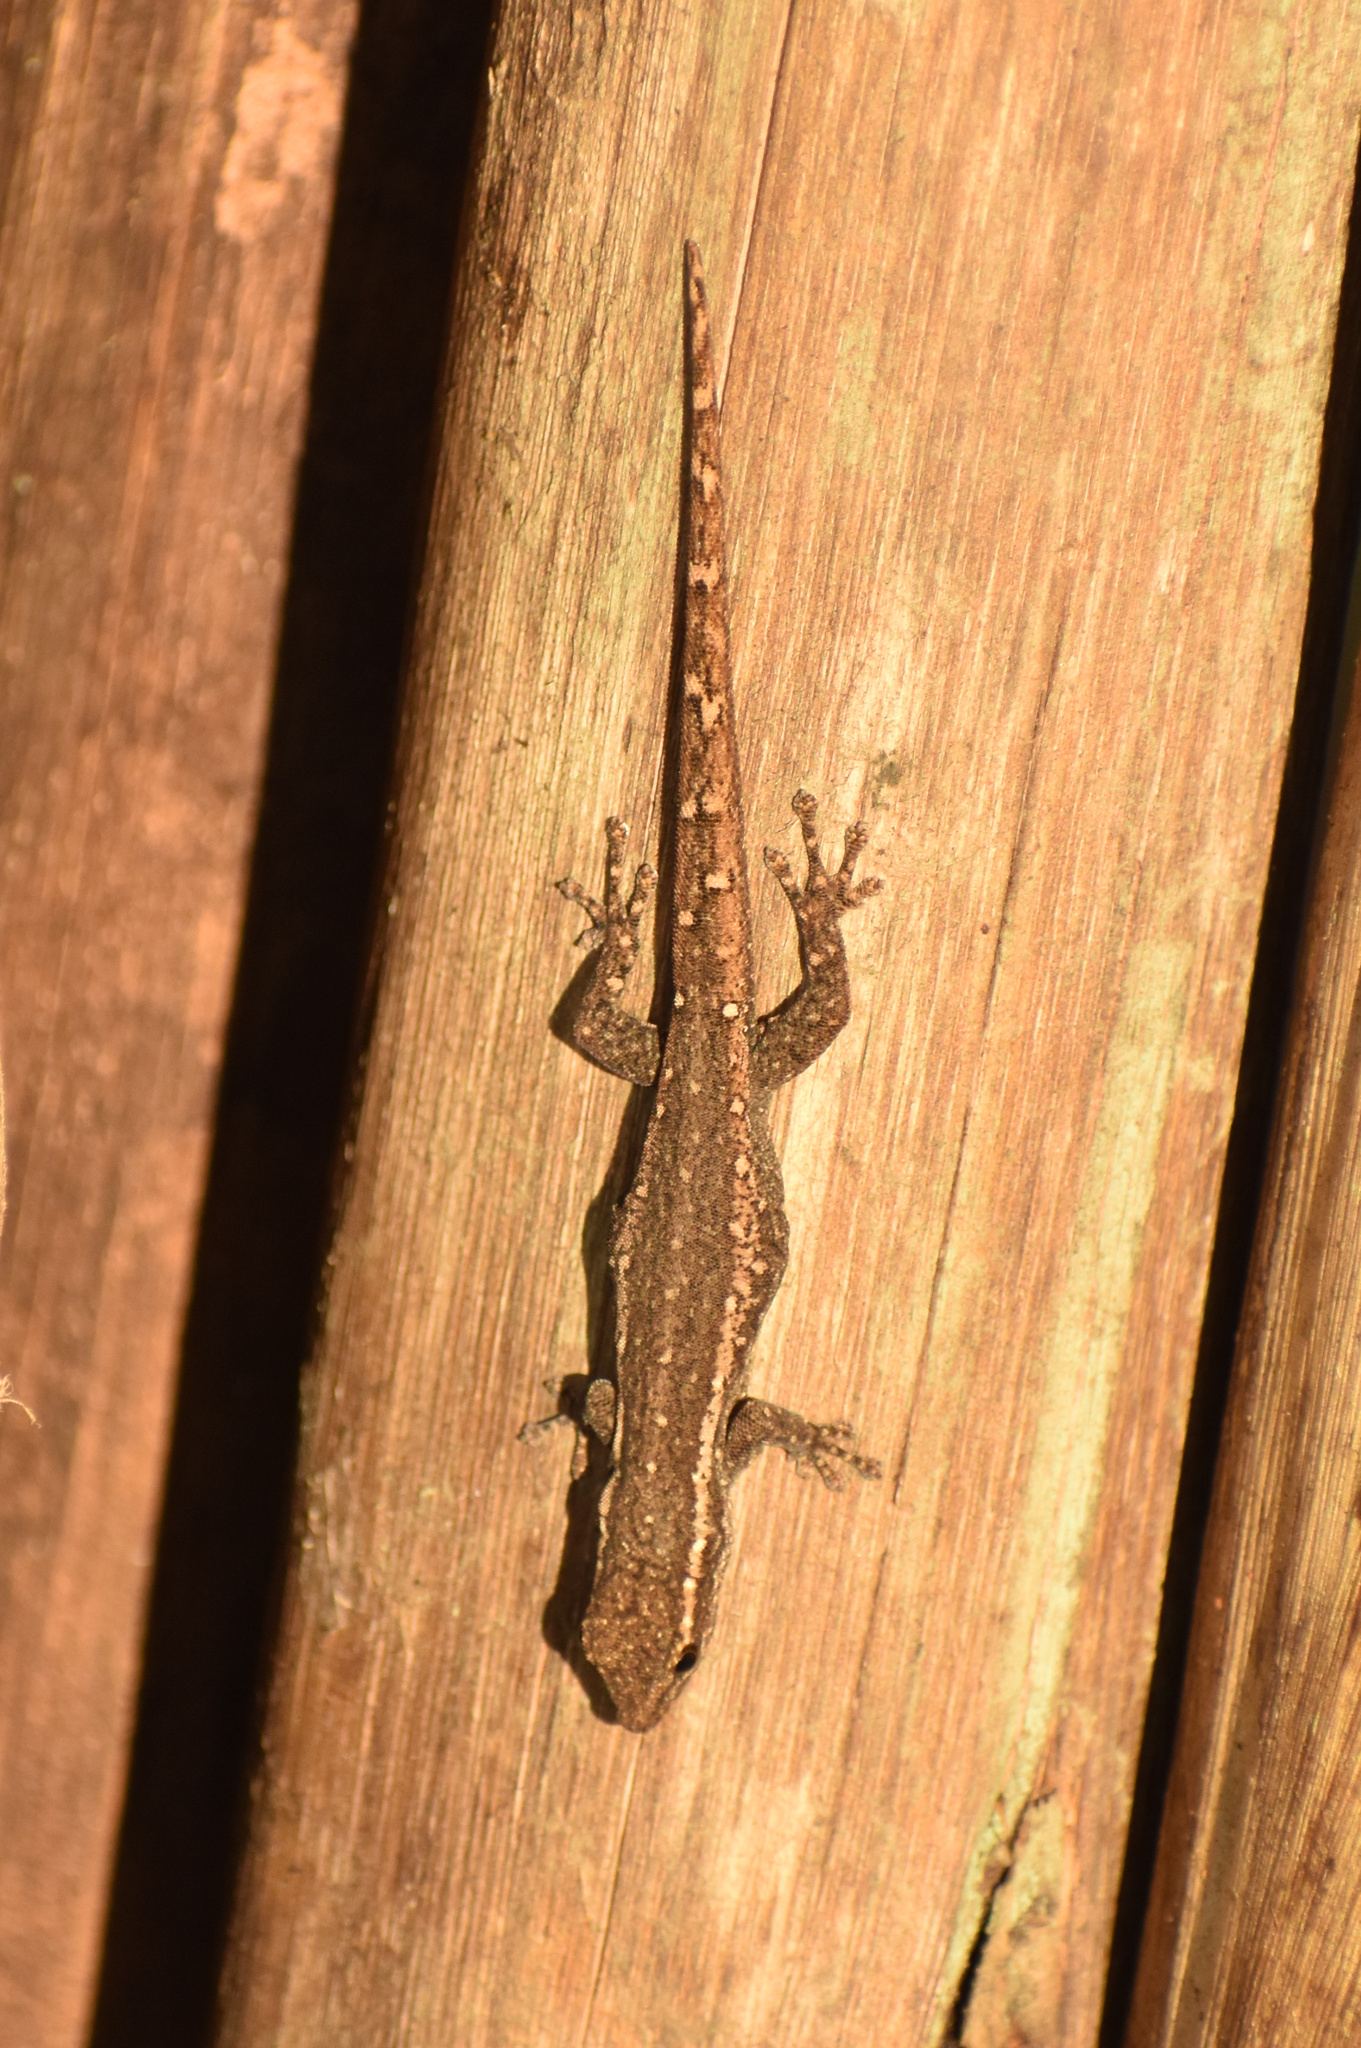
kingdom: Animalia
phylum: Chordata
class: Squamata
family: Gekkonidae
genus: Lygodactylus
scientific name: Lygodactylus capensis
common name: Cape dwarf gecko
